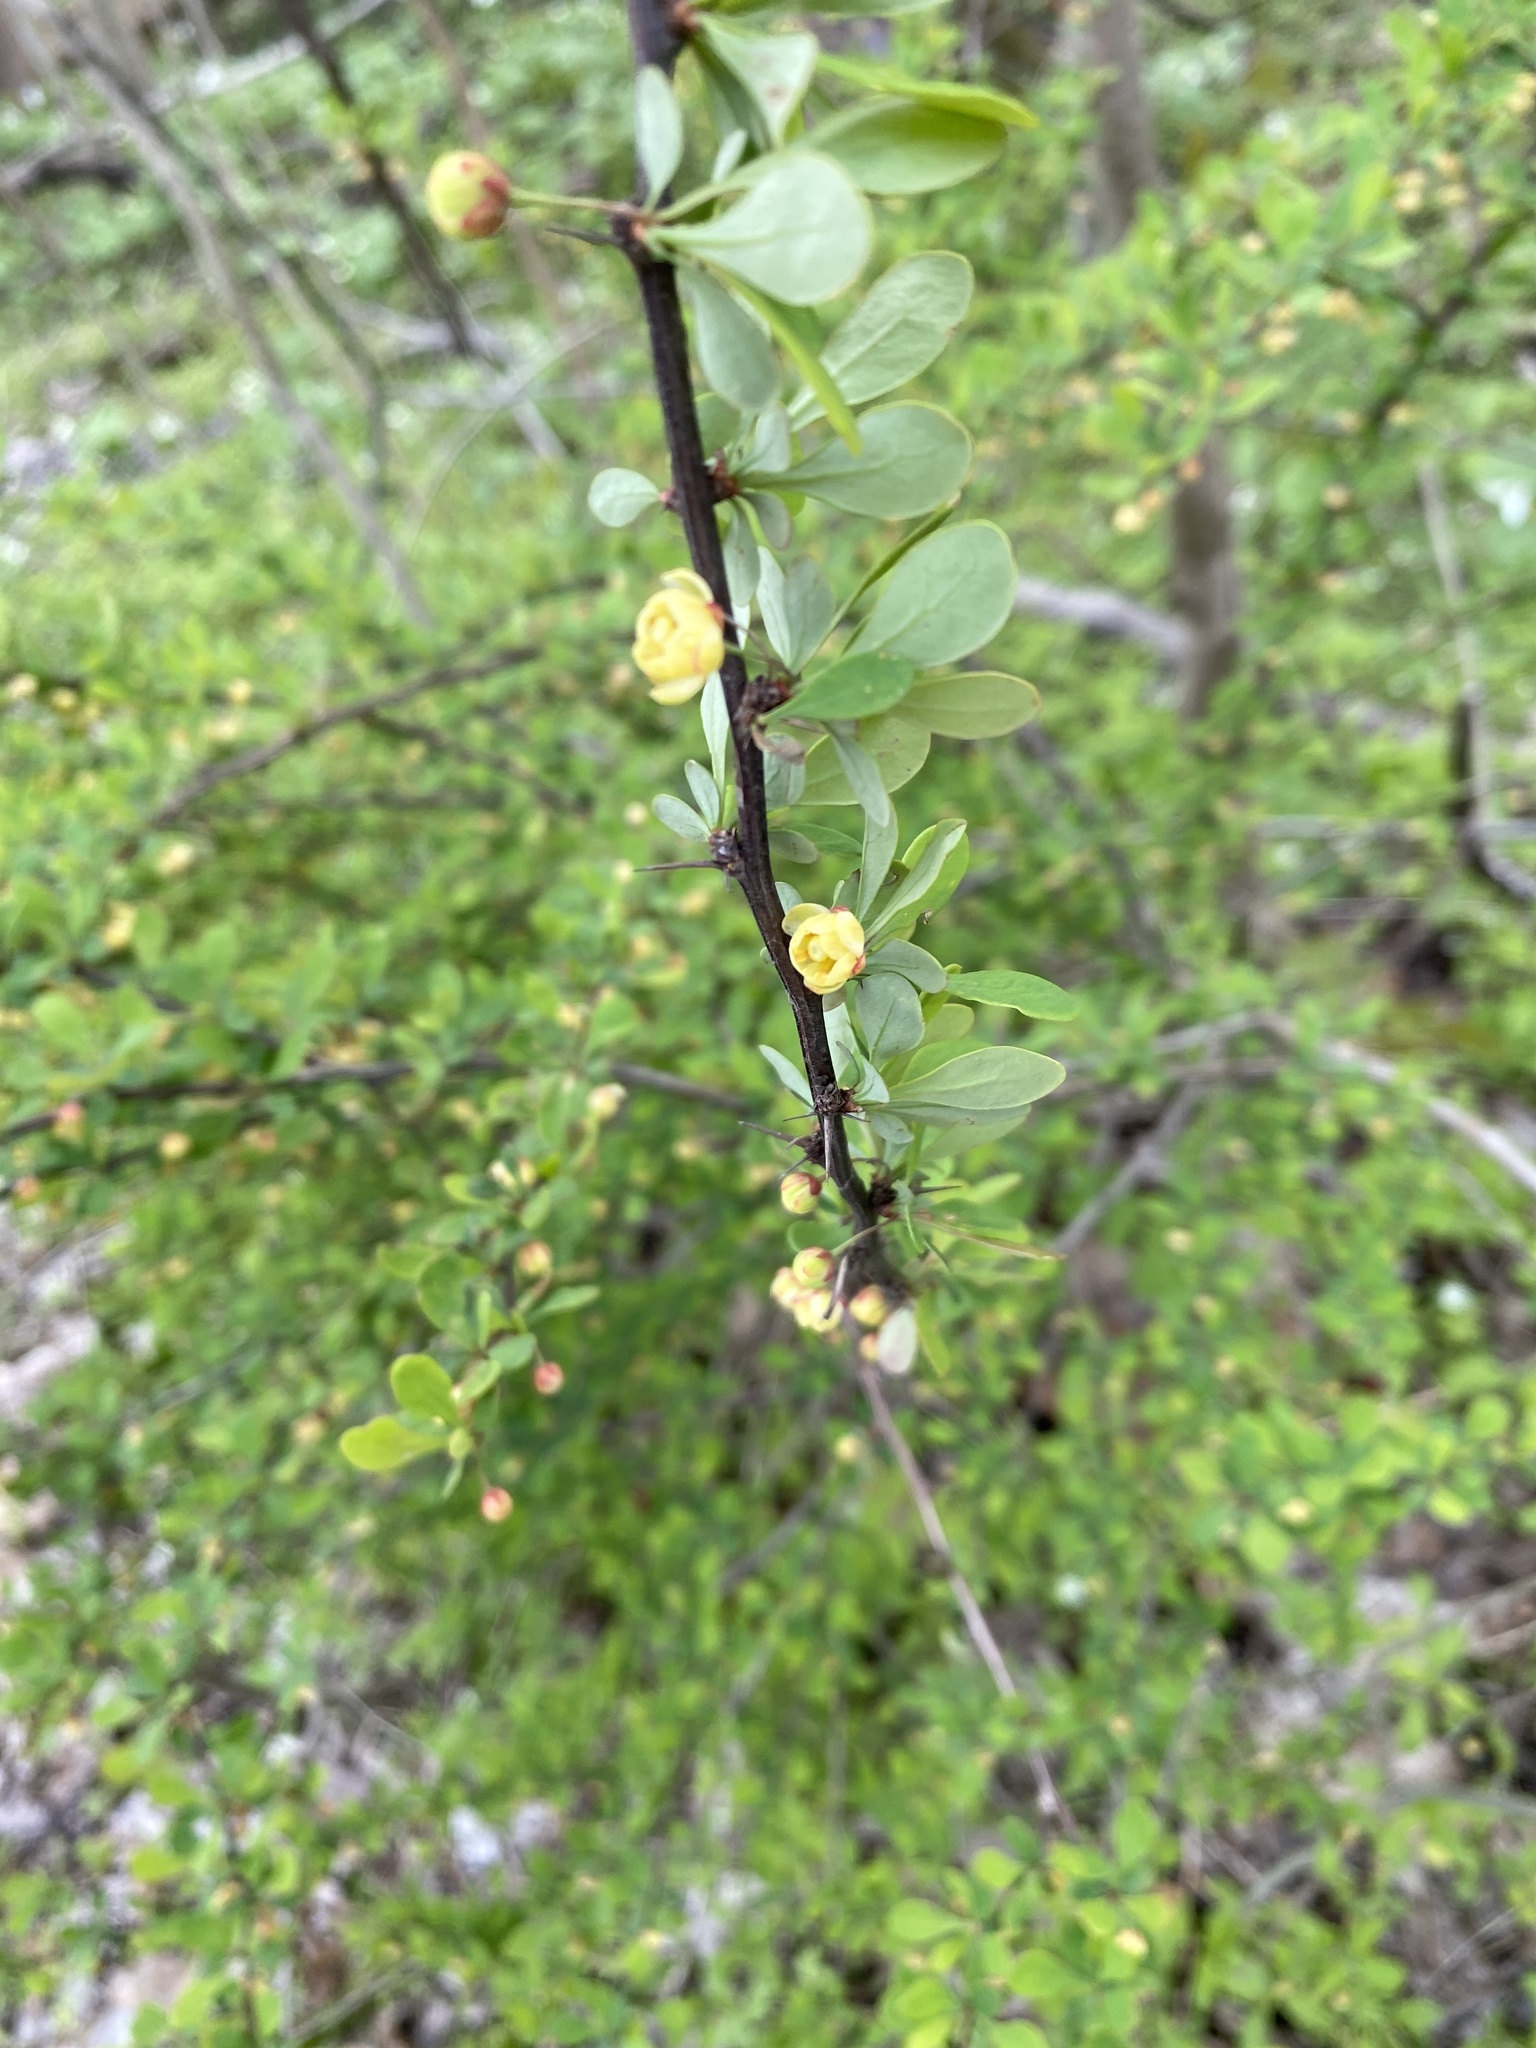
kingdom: Plantae
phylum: Tracheophyta
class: Magnoliopsida
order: Ranunculales
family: Berberidaceae
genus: Berberis
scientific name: Berberis thunbergii
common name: Japanese barberry
